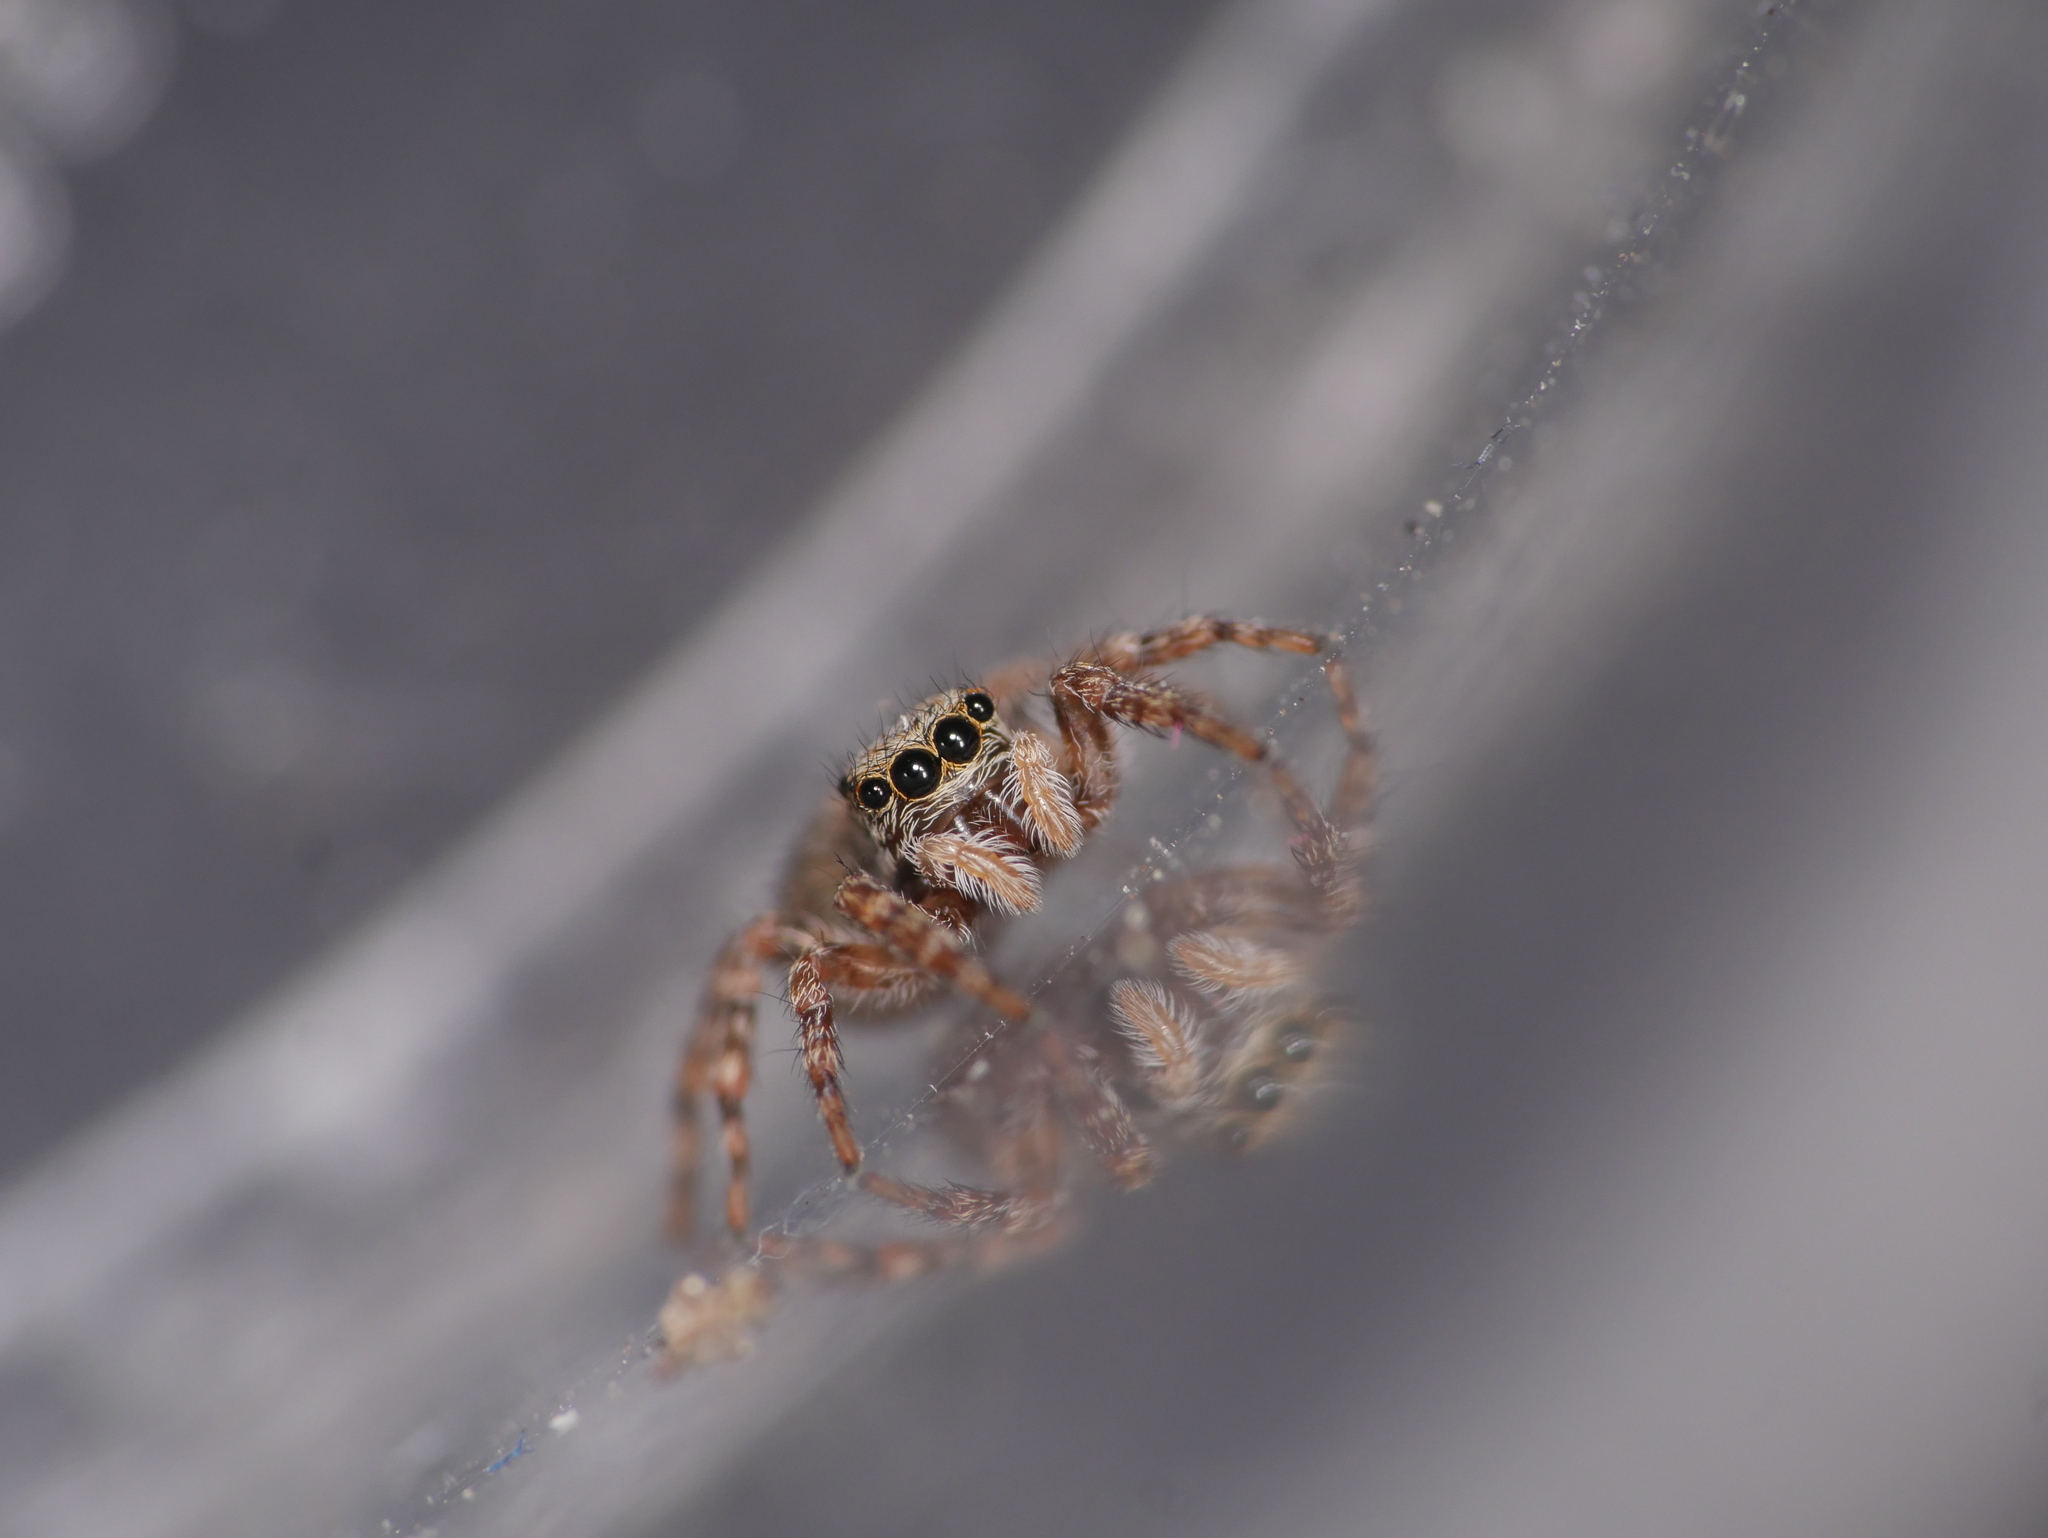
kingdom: Animalia
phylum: Arthropoda
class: Arachnida
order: Araneae
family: Salticidae
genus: Pseudeuophrys
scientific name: Pseudeuophrys lanigera
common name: Jumping spider
